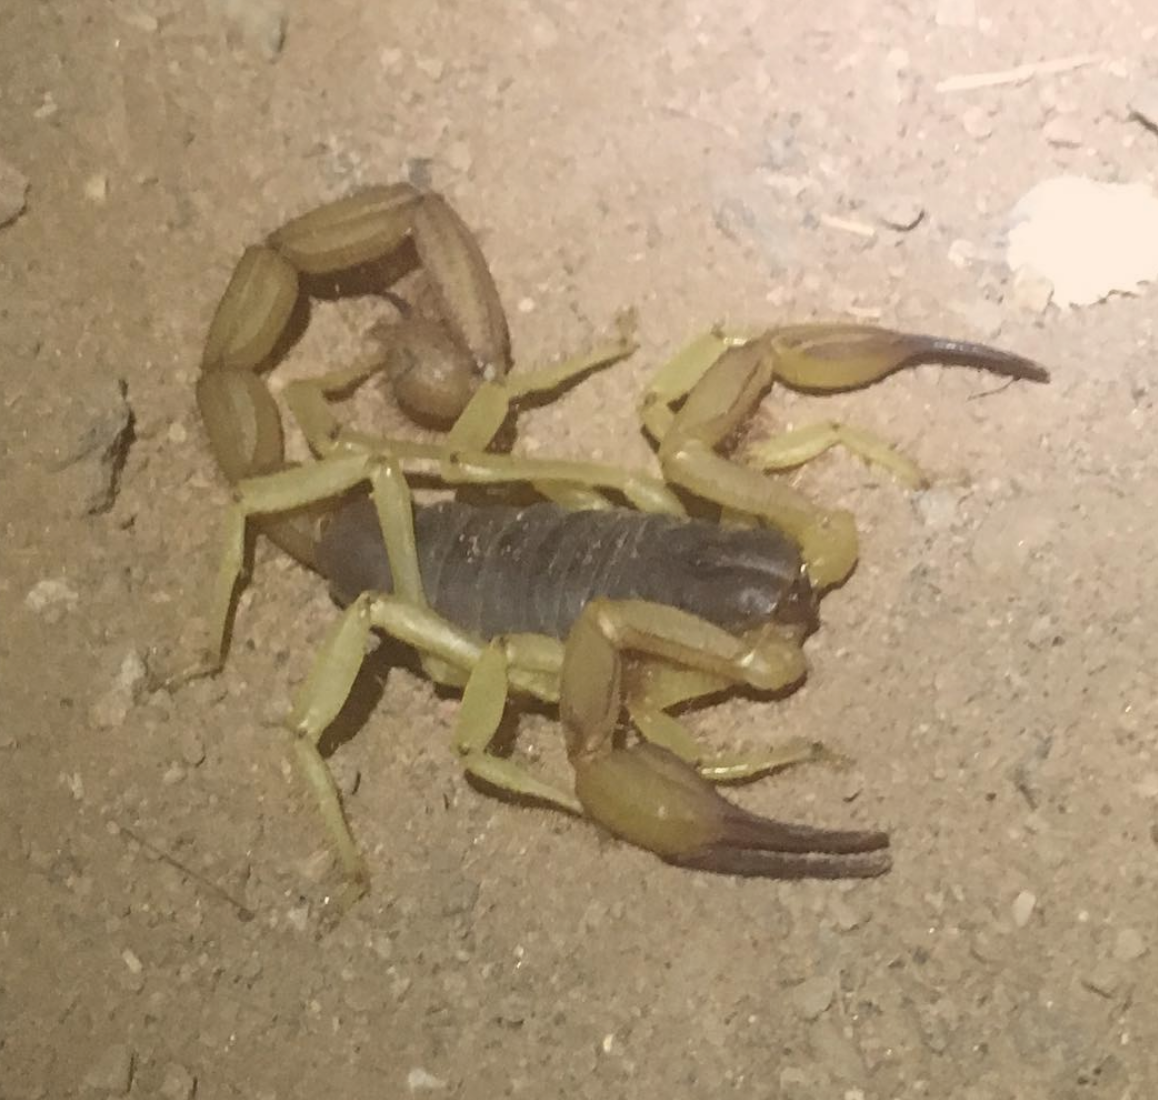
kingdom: Animalia
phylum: Arthropoda
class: Arachnida
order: Scorpiones
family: Hadruridae
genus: Hadrurus
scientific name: Hadrurus spadix
